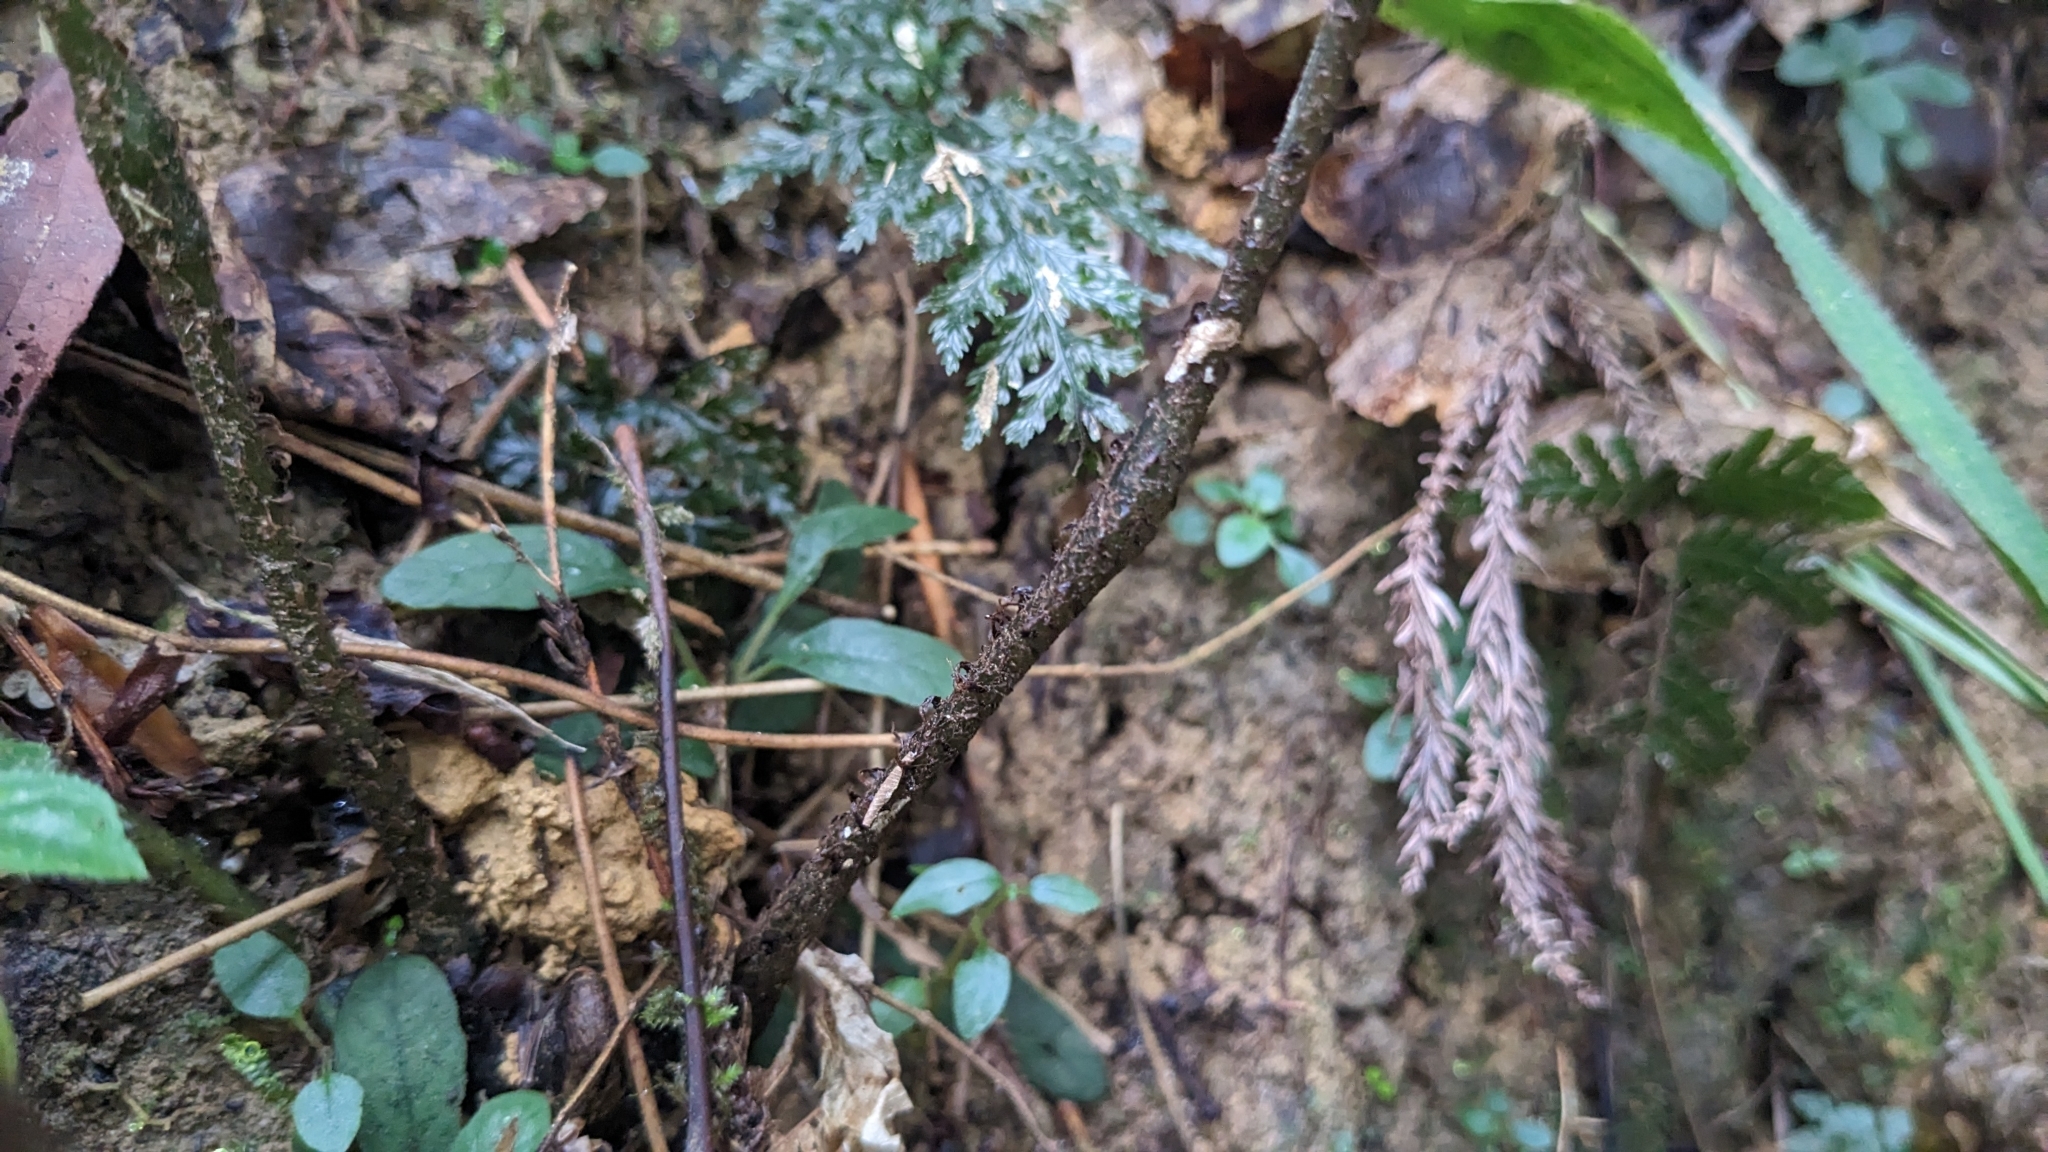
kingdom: Plantae
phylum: Tracheophyta
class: Polypodiopsida
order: Marattiales
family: Marattiaceae
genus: Angiopteris
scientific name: Angiopteris somae
